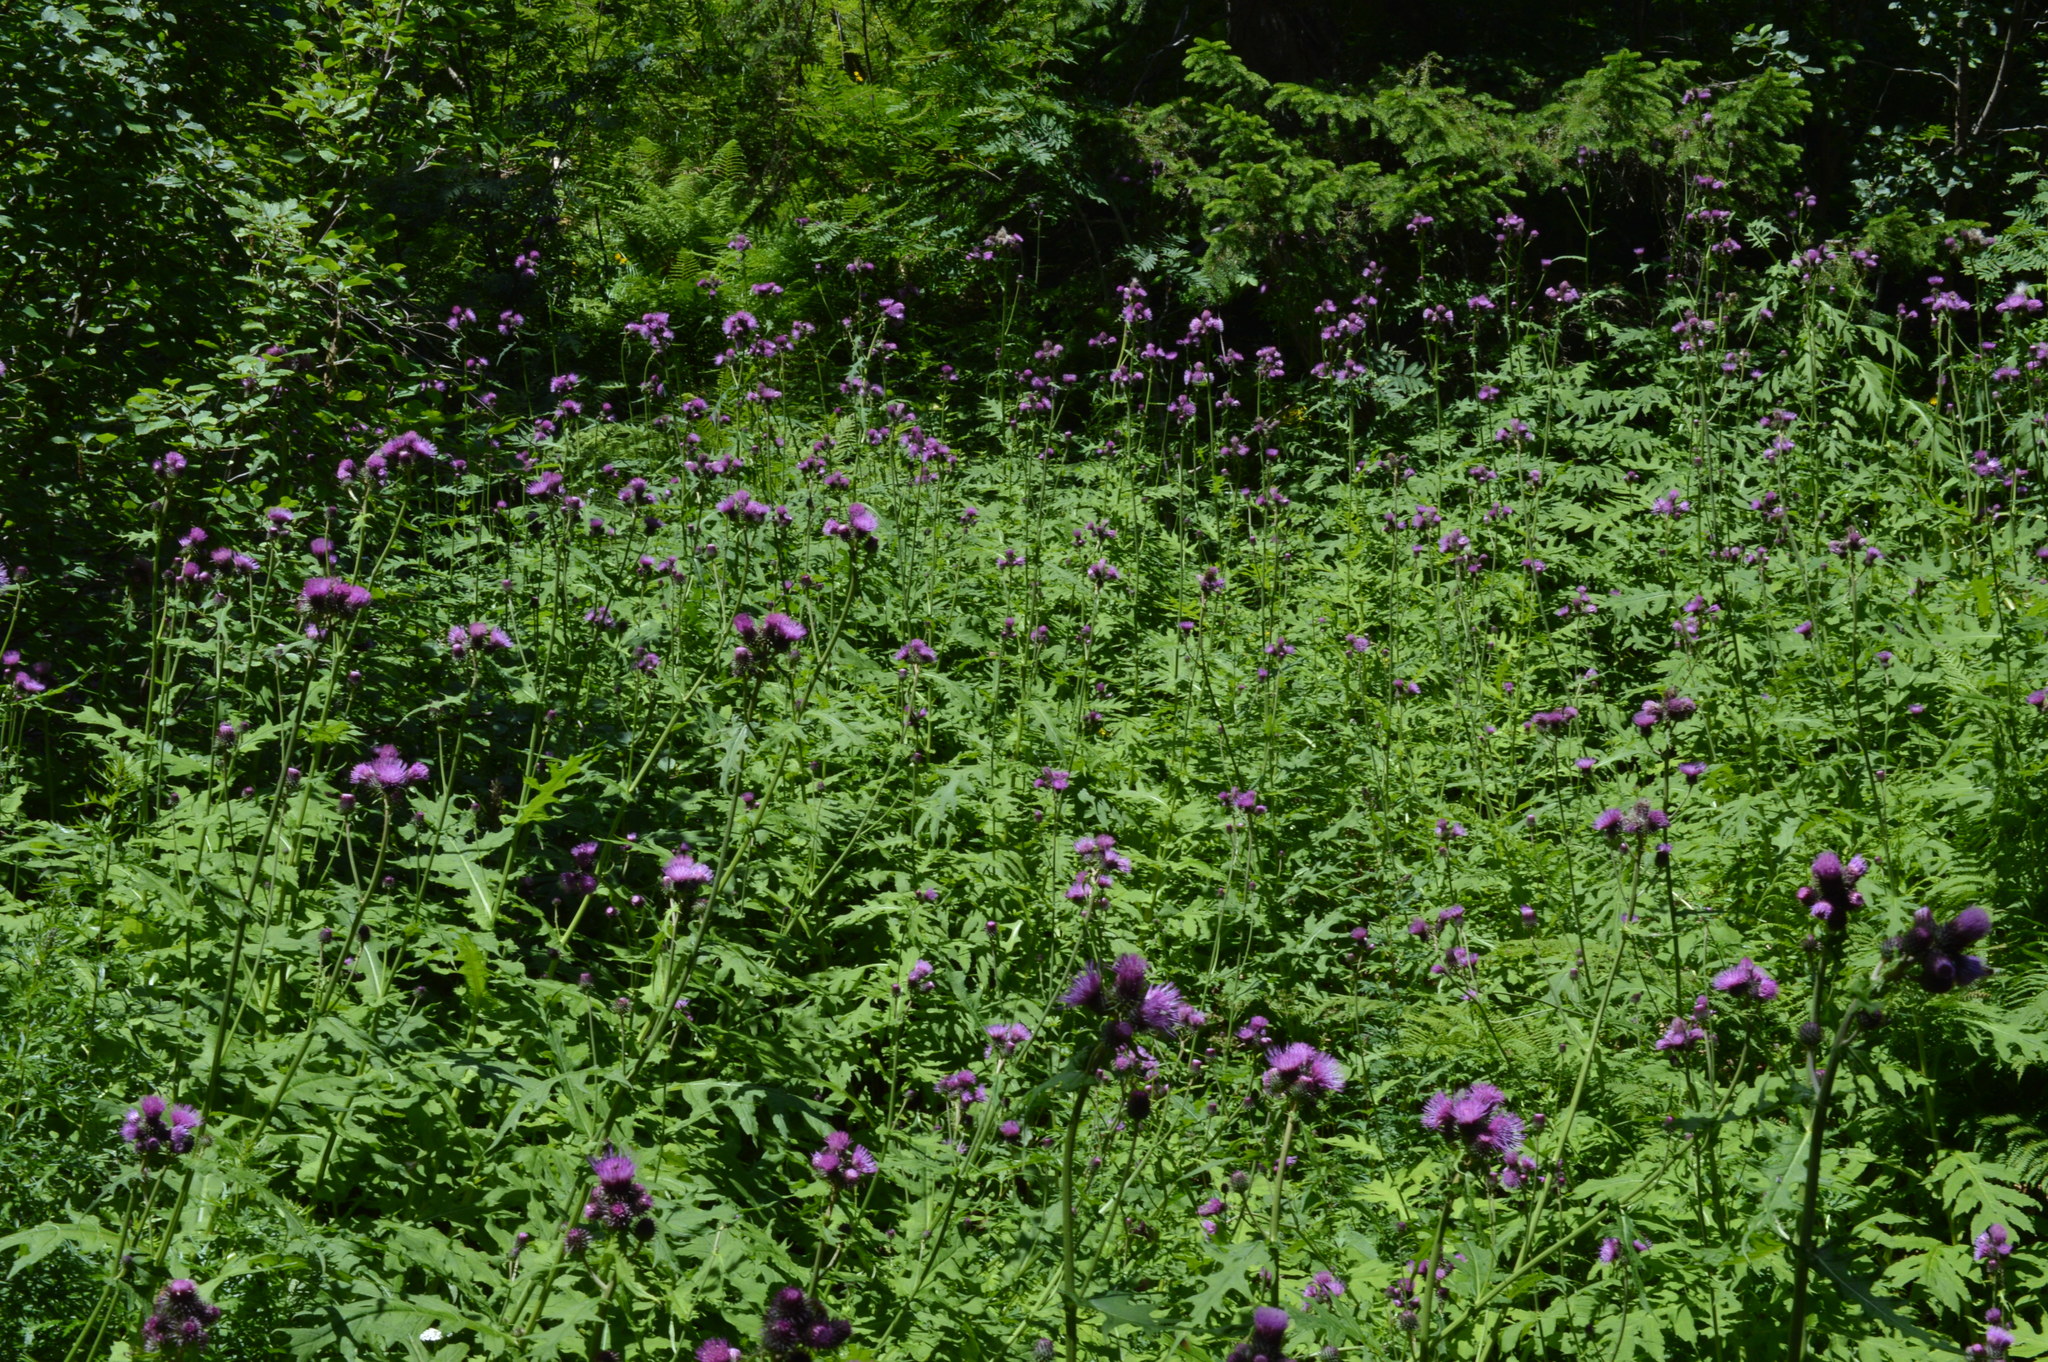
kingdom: Plantae
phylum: Tracheophyta
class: Magnoliopsida
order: Asterales
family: Asteraceae
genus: Cirsium
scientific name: Cirsium alsophilum
